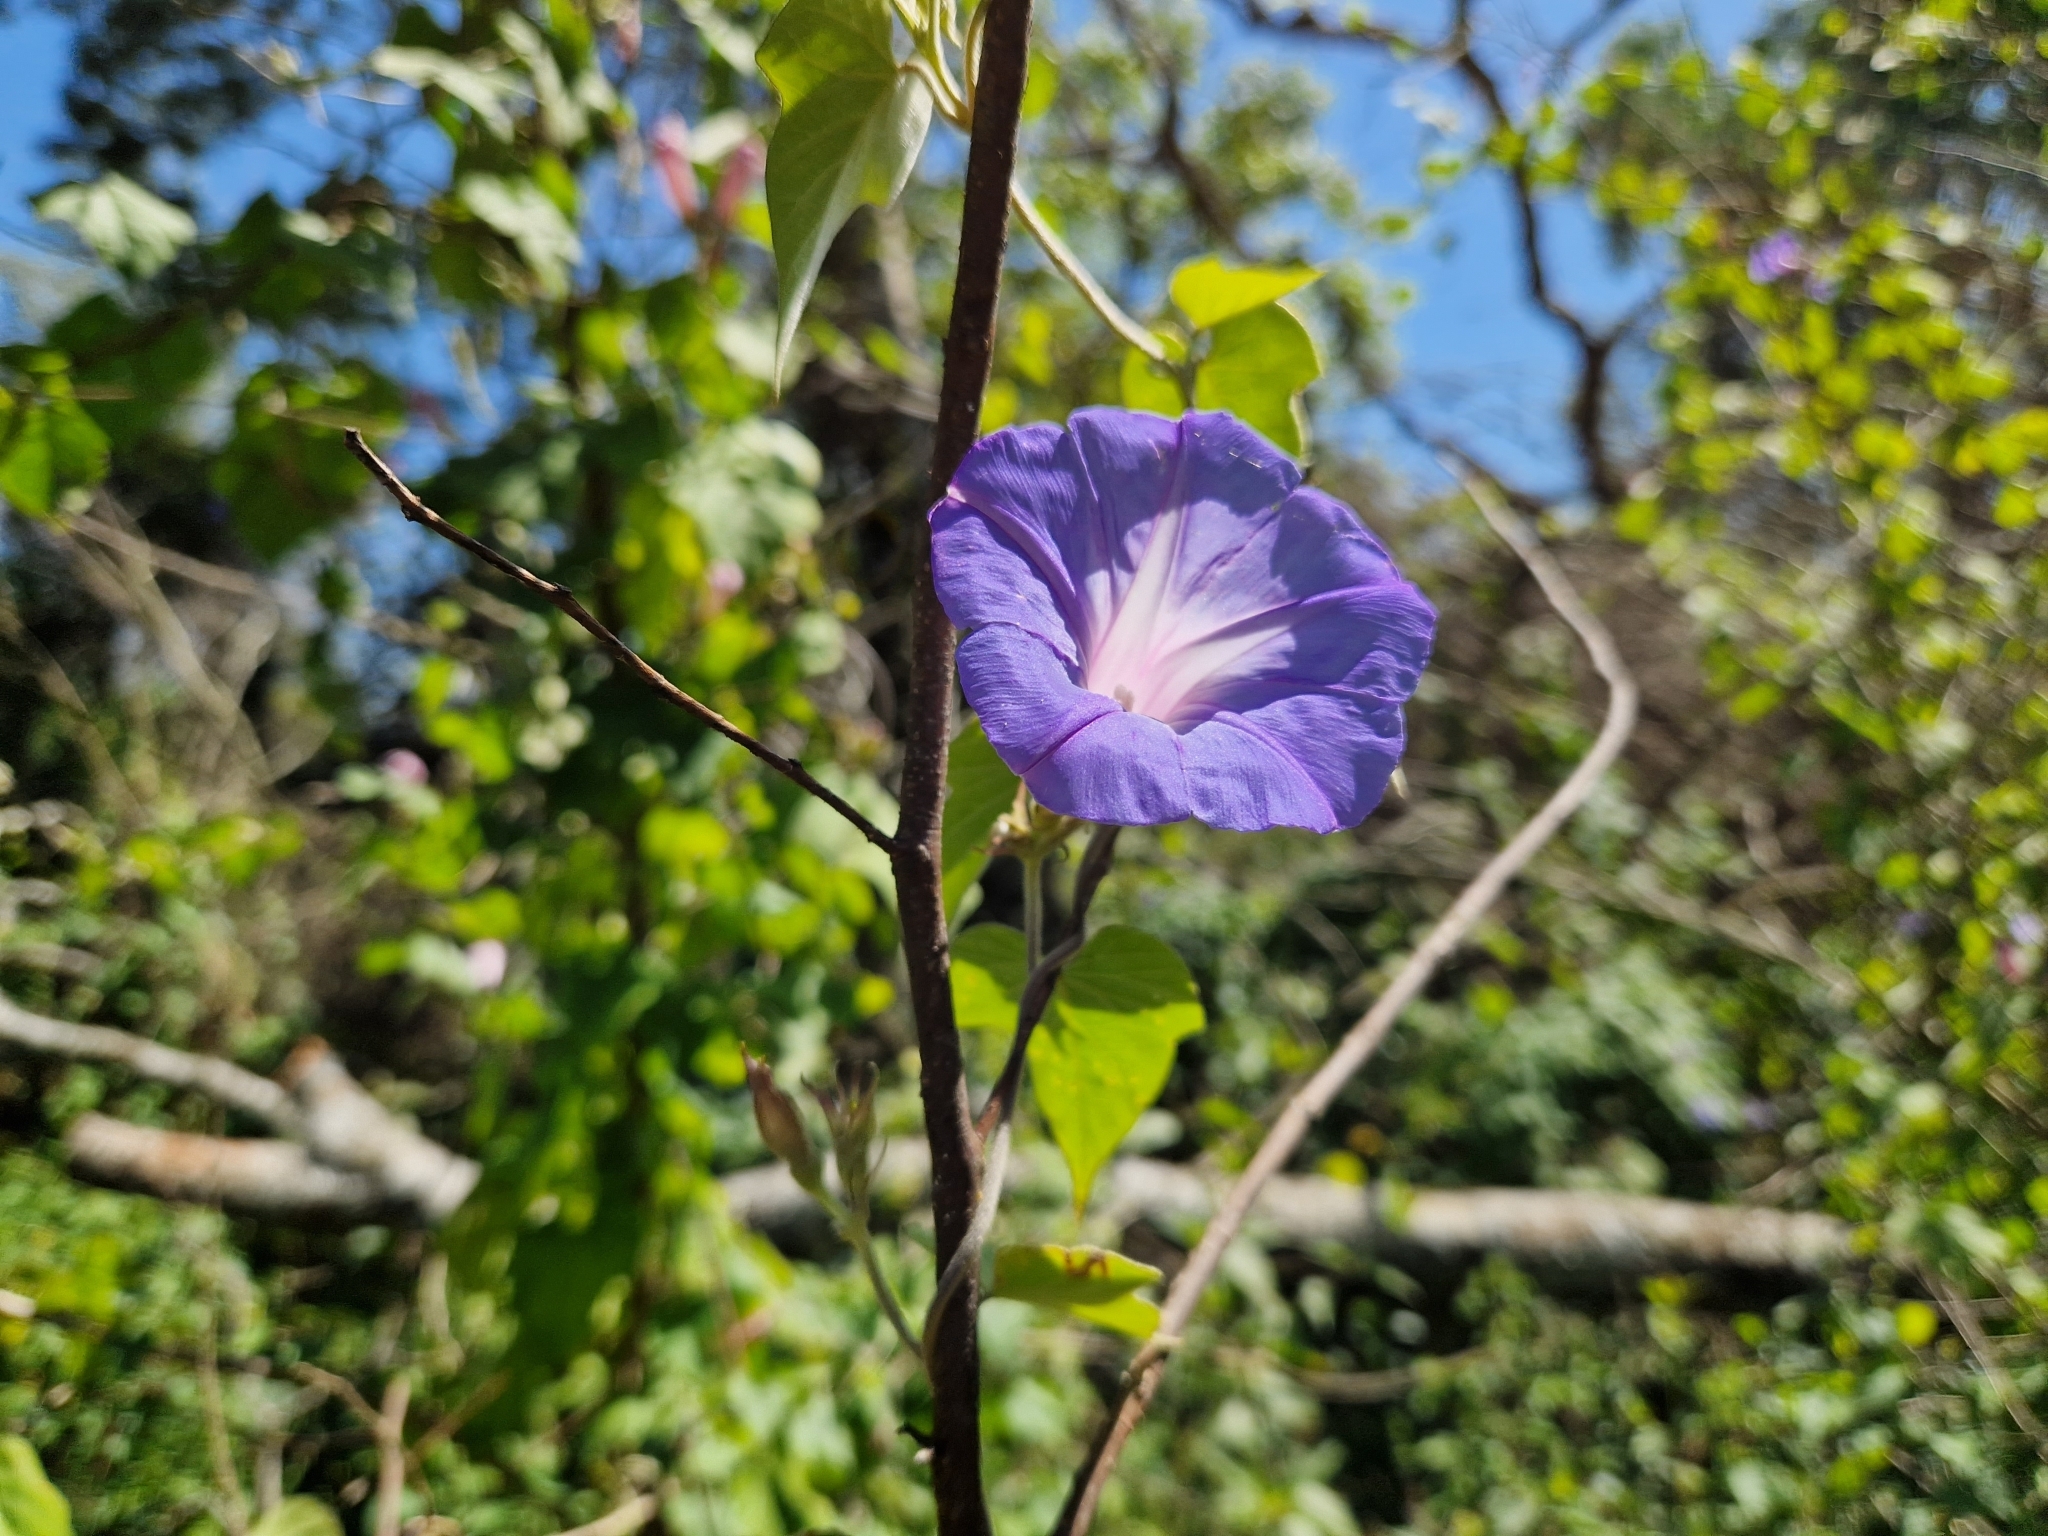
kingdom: Plantae
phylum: Tracheophyta
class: Magnoliopsida
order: Solanales
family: Convolvulaceae
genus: Ipomoea
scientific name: Ipomoea indica
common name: Blue dawnflower
